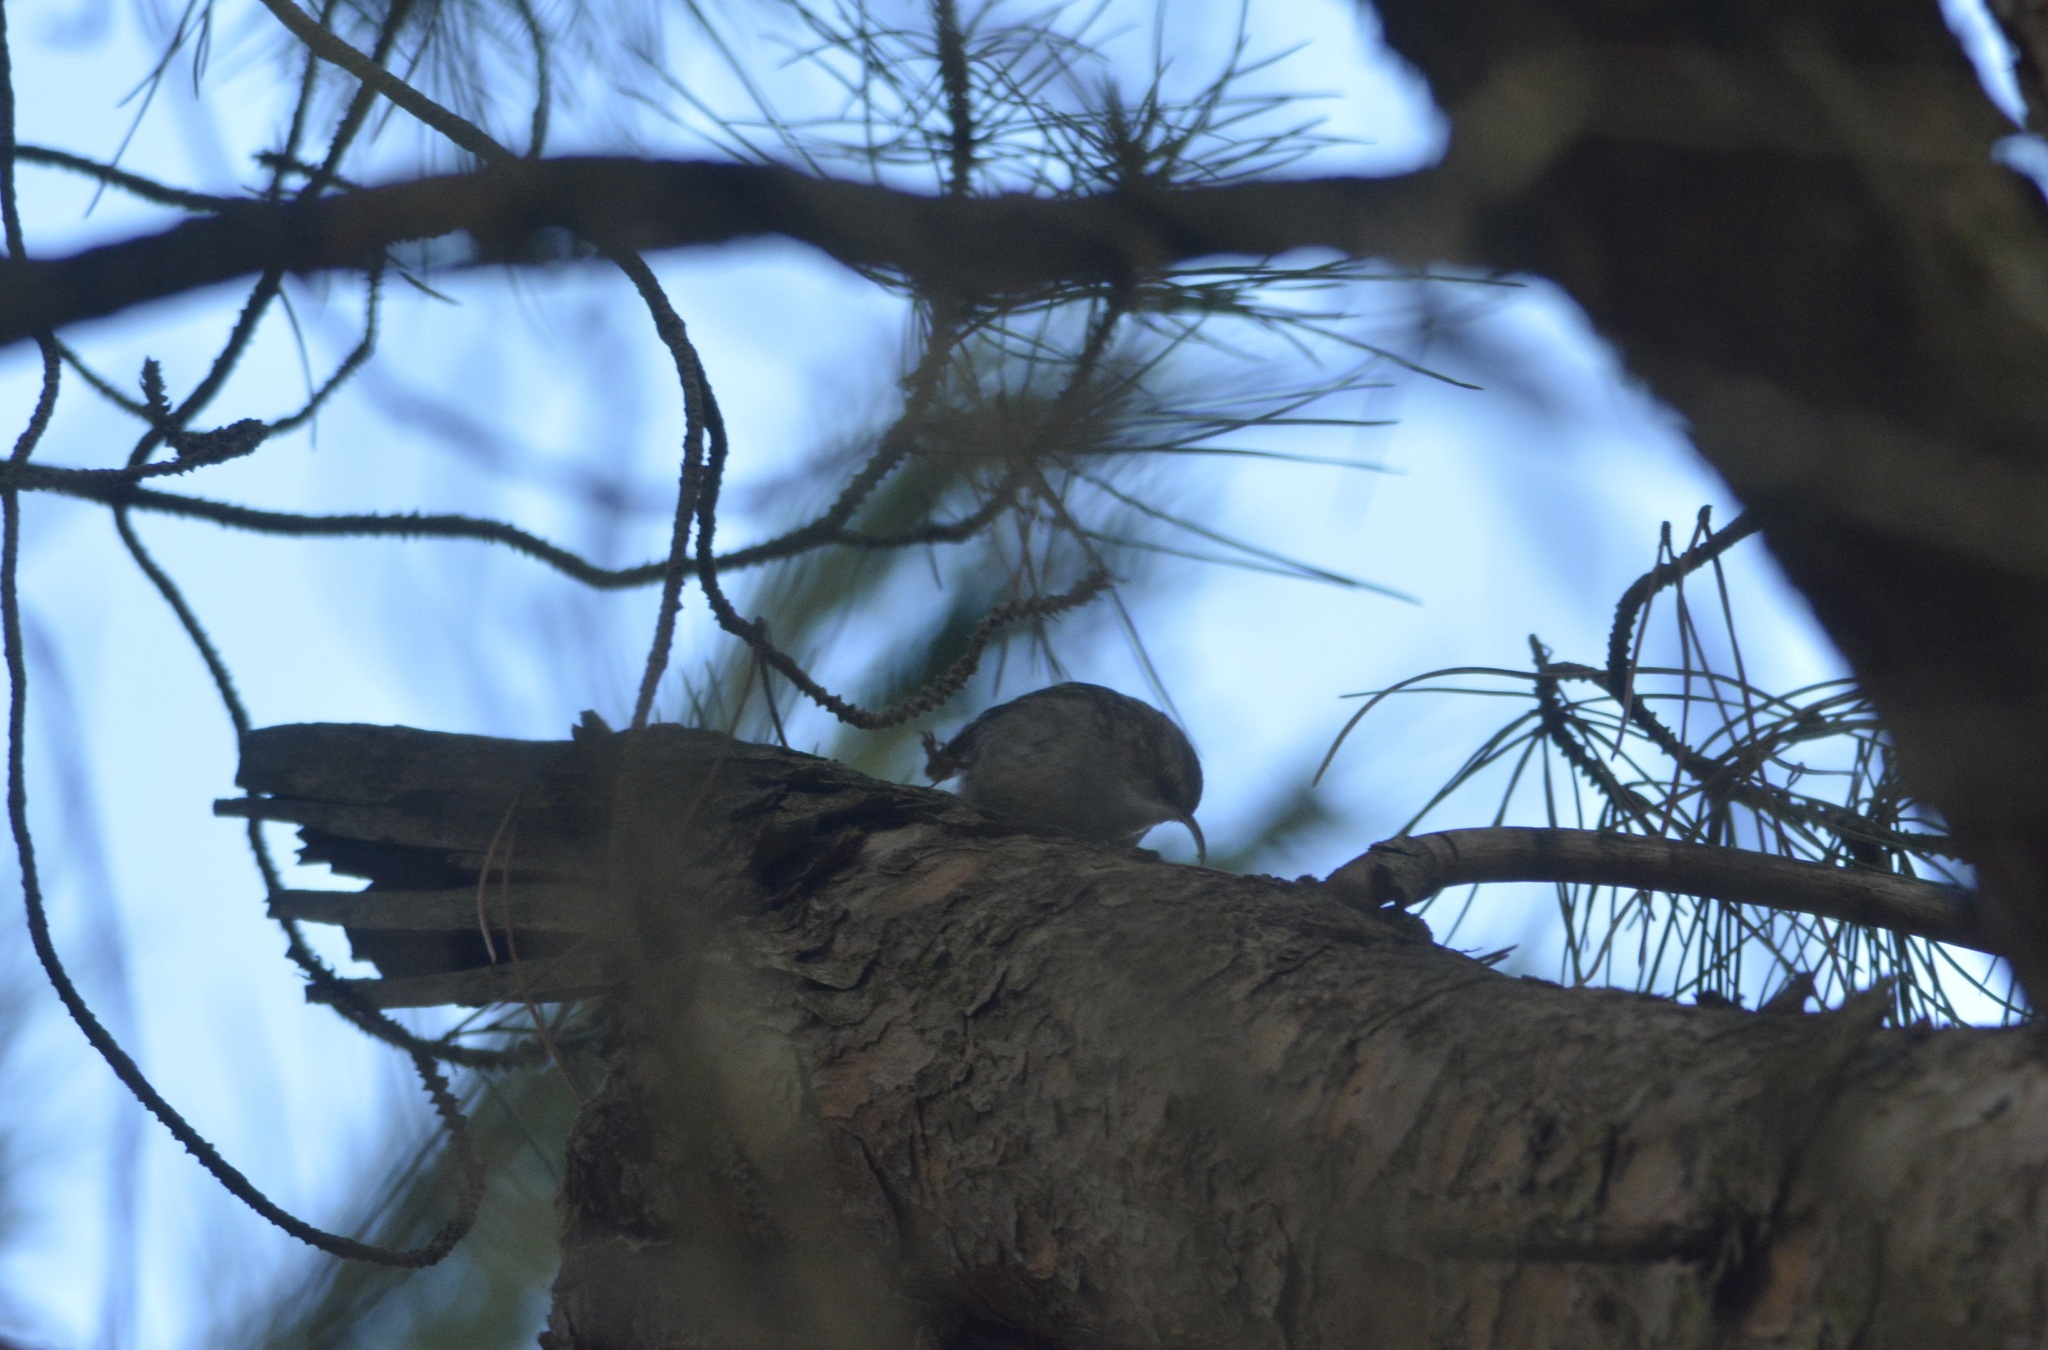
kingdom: Animalia
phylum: Chordata
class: Aves
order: Passeriformes
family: Certhiidae
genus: Certhia
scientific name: Certhia brachydactyla
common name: Short-toed treecreeper
